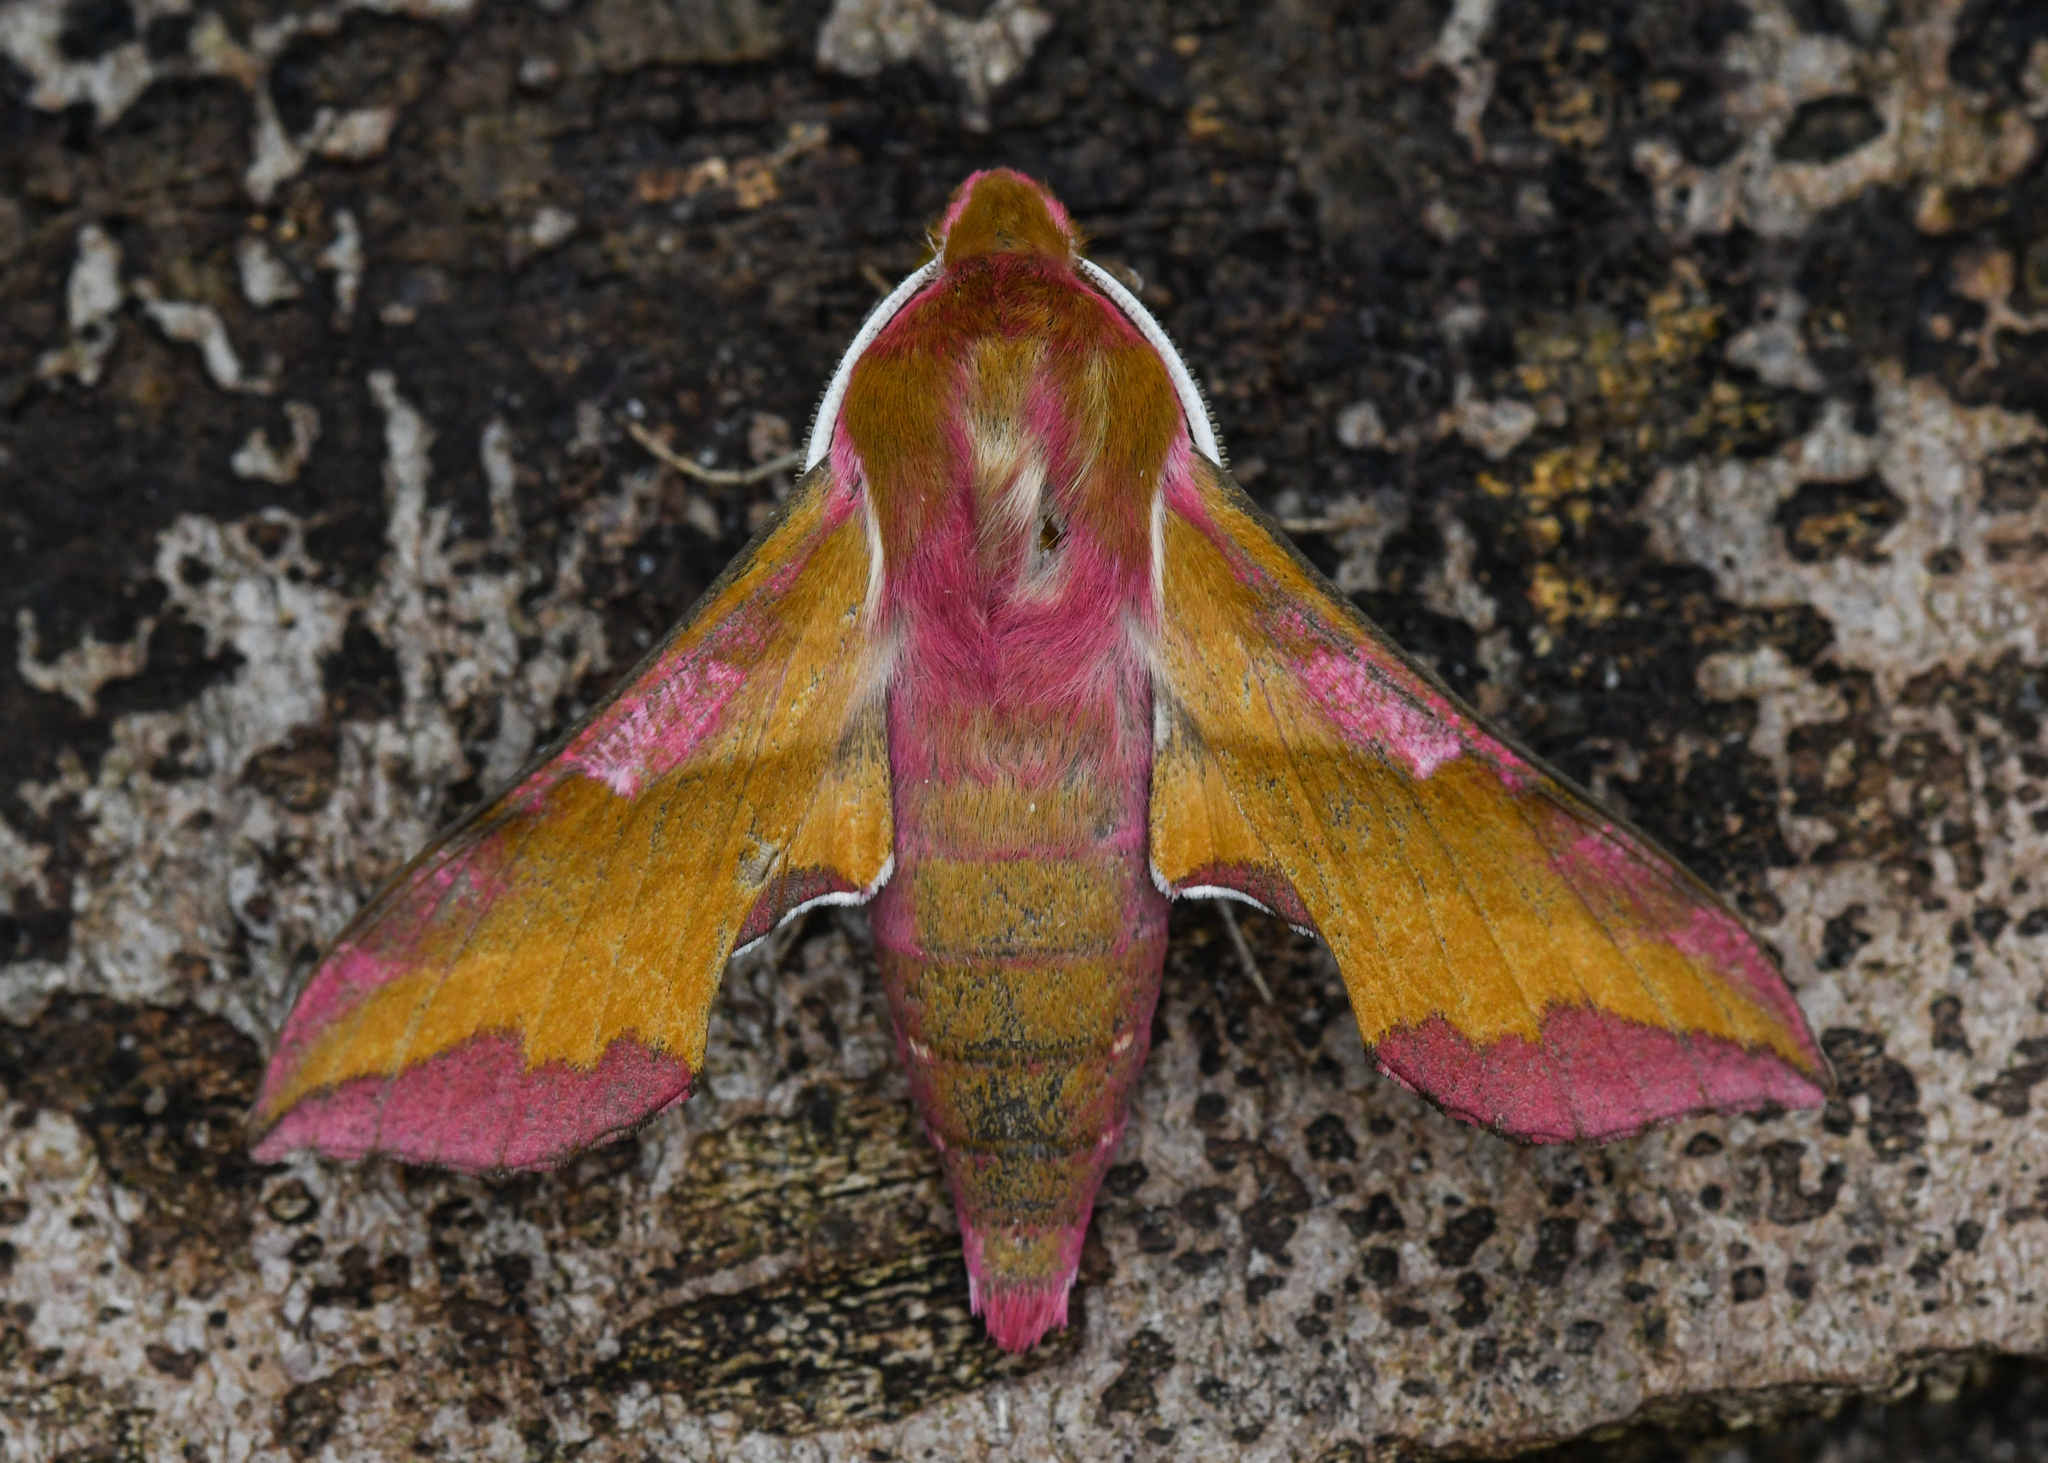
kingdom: Animalia
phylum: Arthropoda
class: Insecta
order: Lepidoptera
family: Sphingidae
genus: Deilephila
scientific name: Deilephila porcellus
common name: Small elephant hawk-moth
